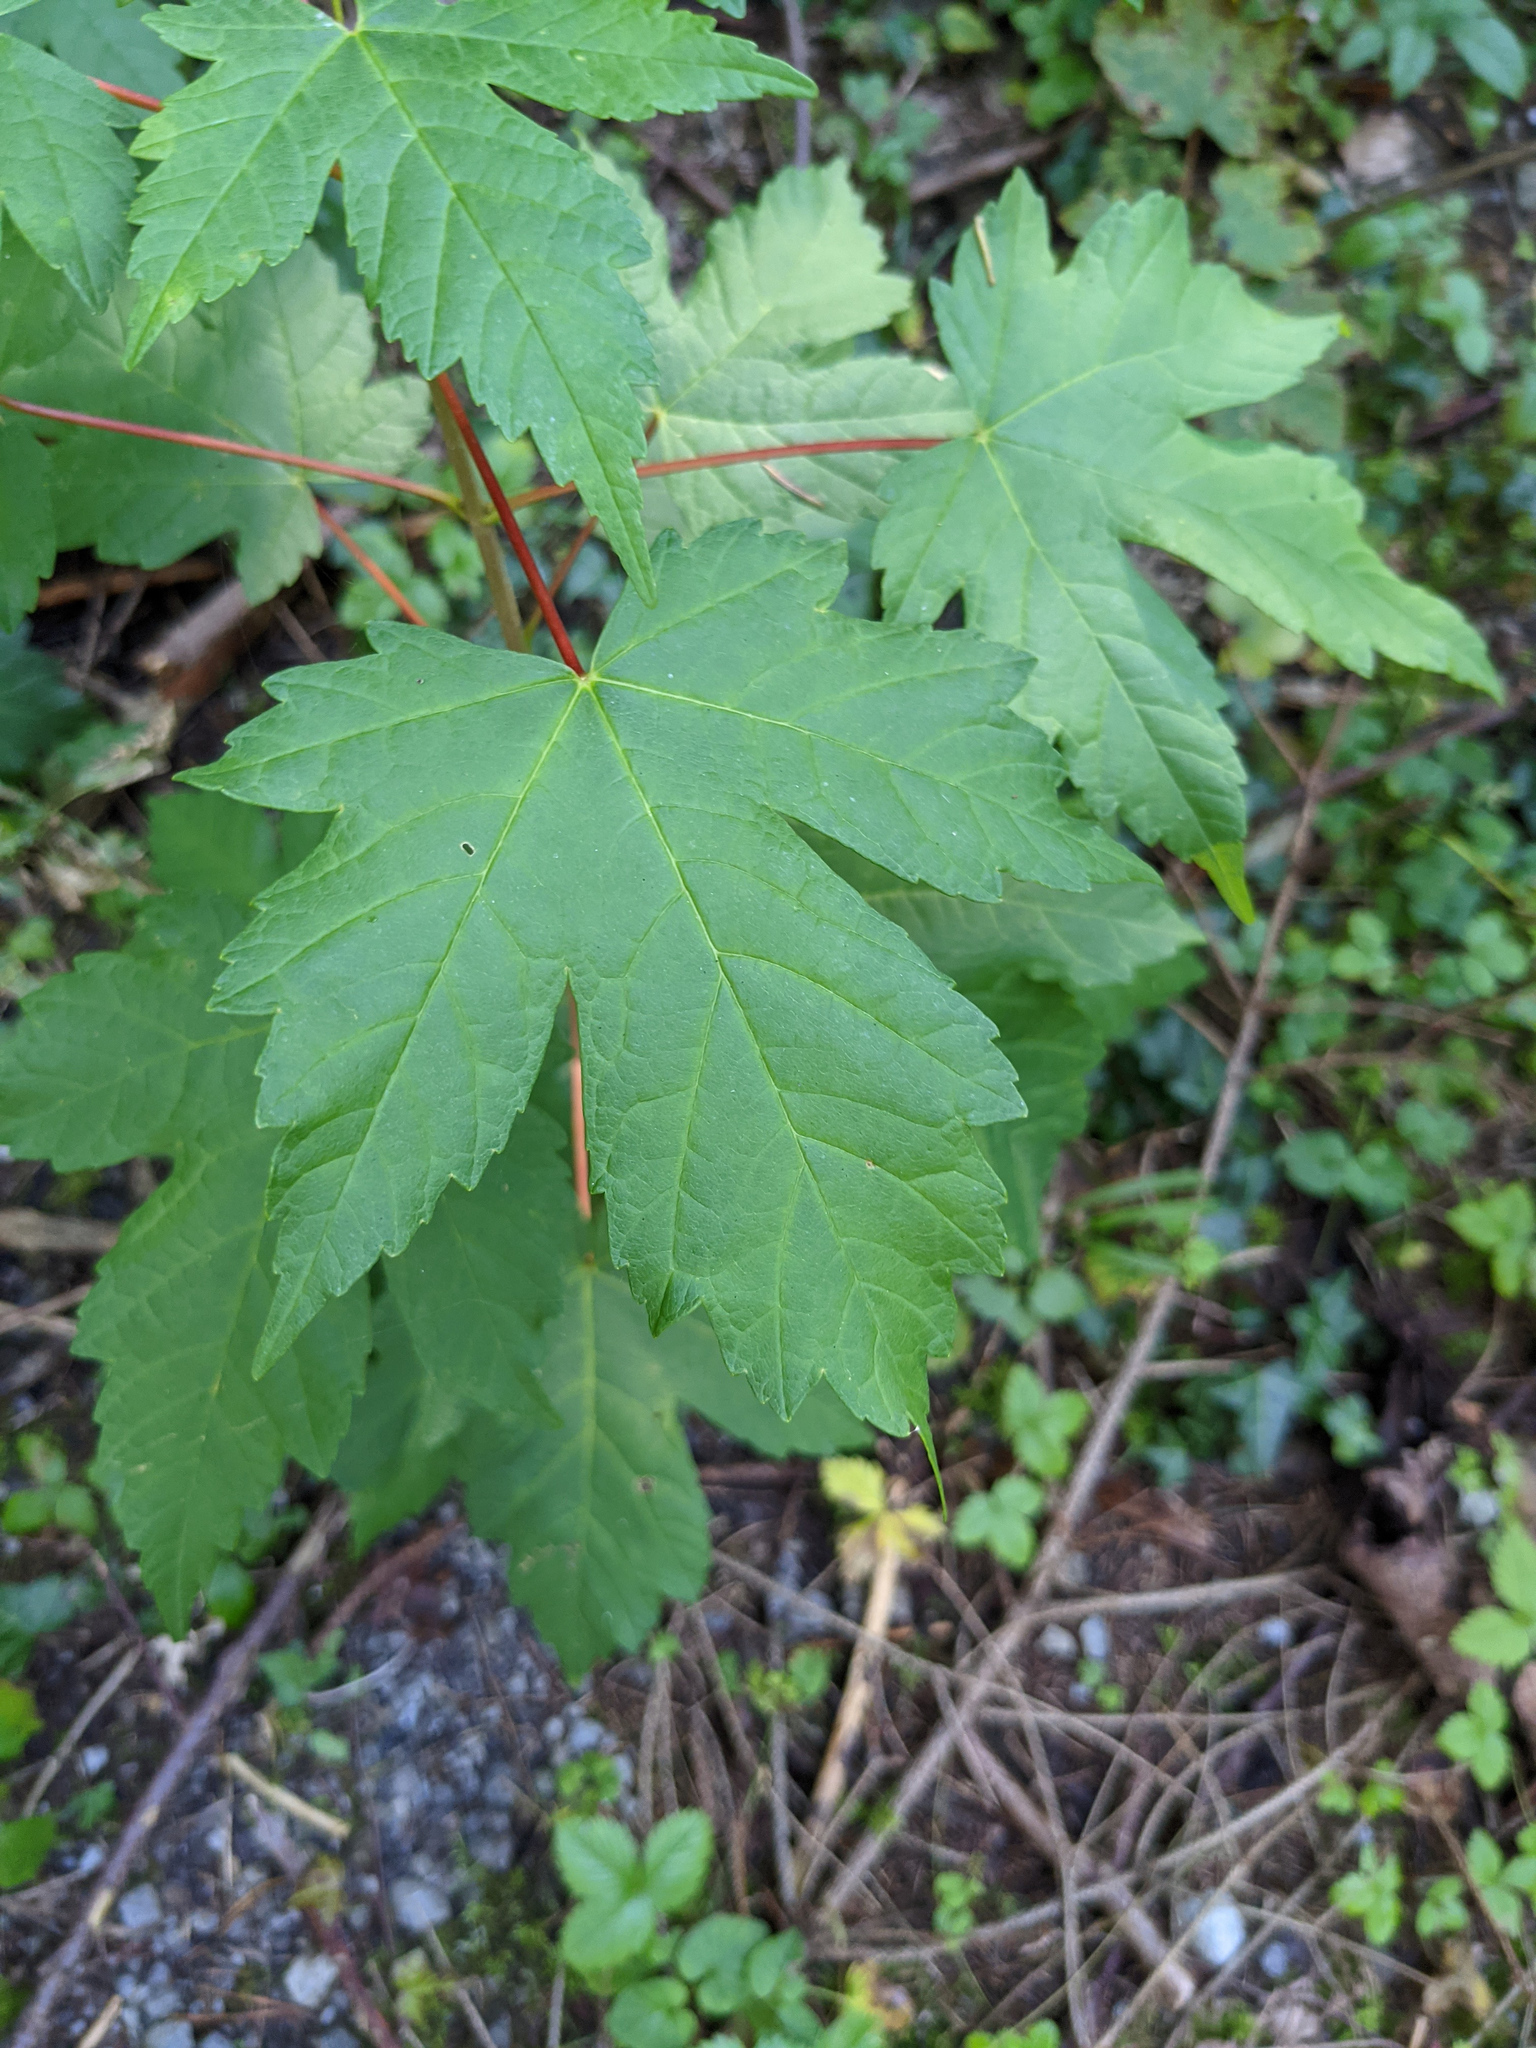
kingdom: Plantae
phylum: Tracheophyta
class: Magnoliopsida
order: Sapindales
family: Sapindaceae
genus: Acer
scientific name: Acer pseudoplatanus
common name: Sycamore
